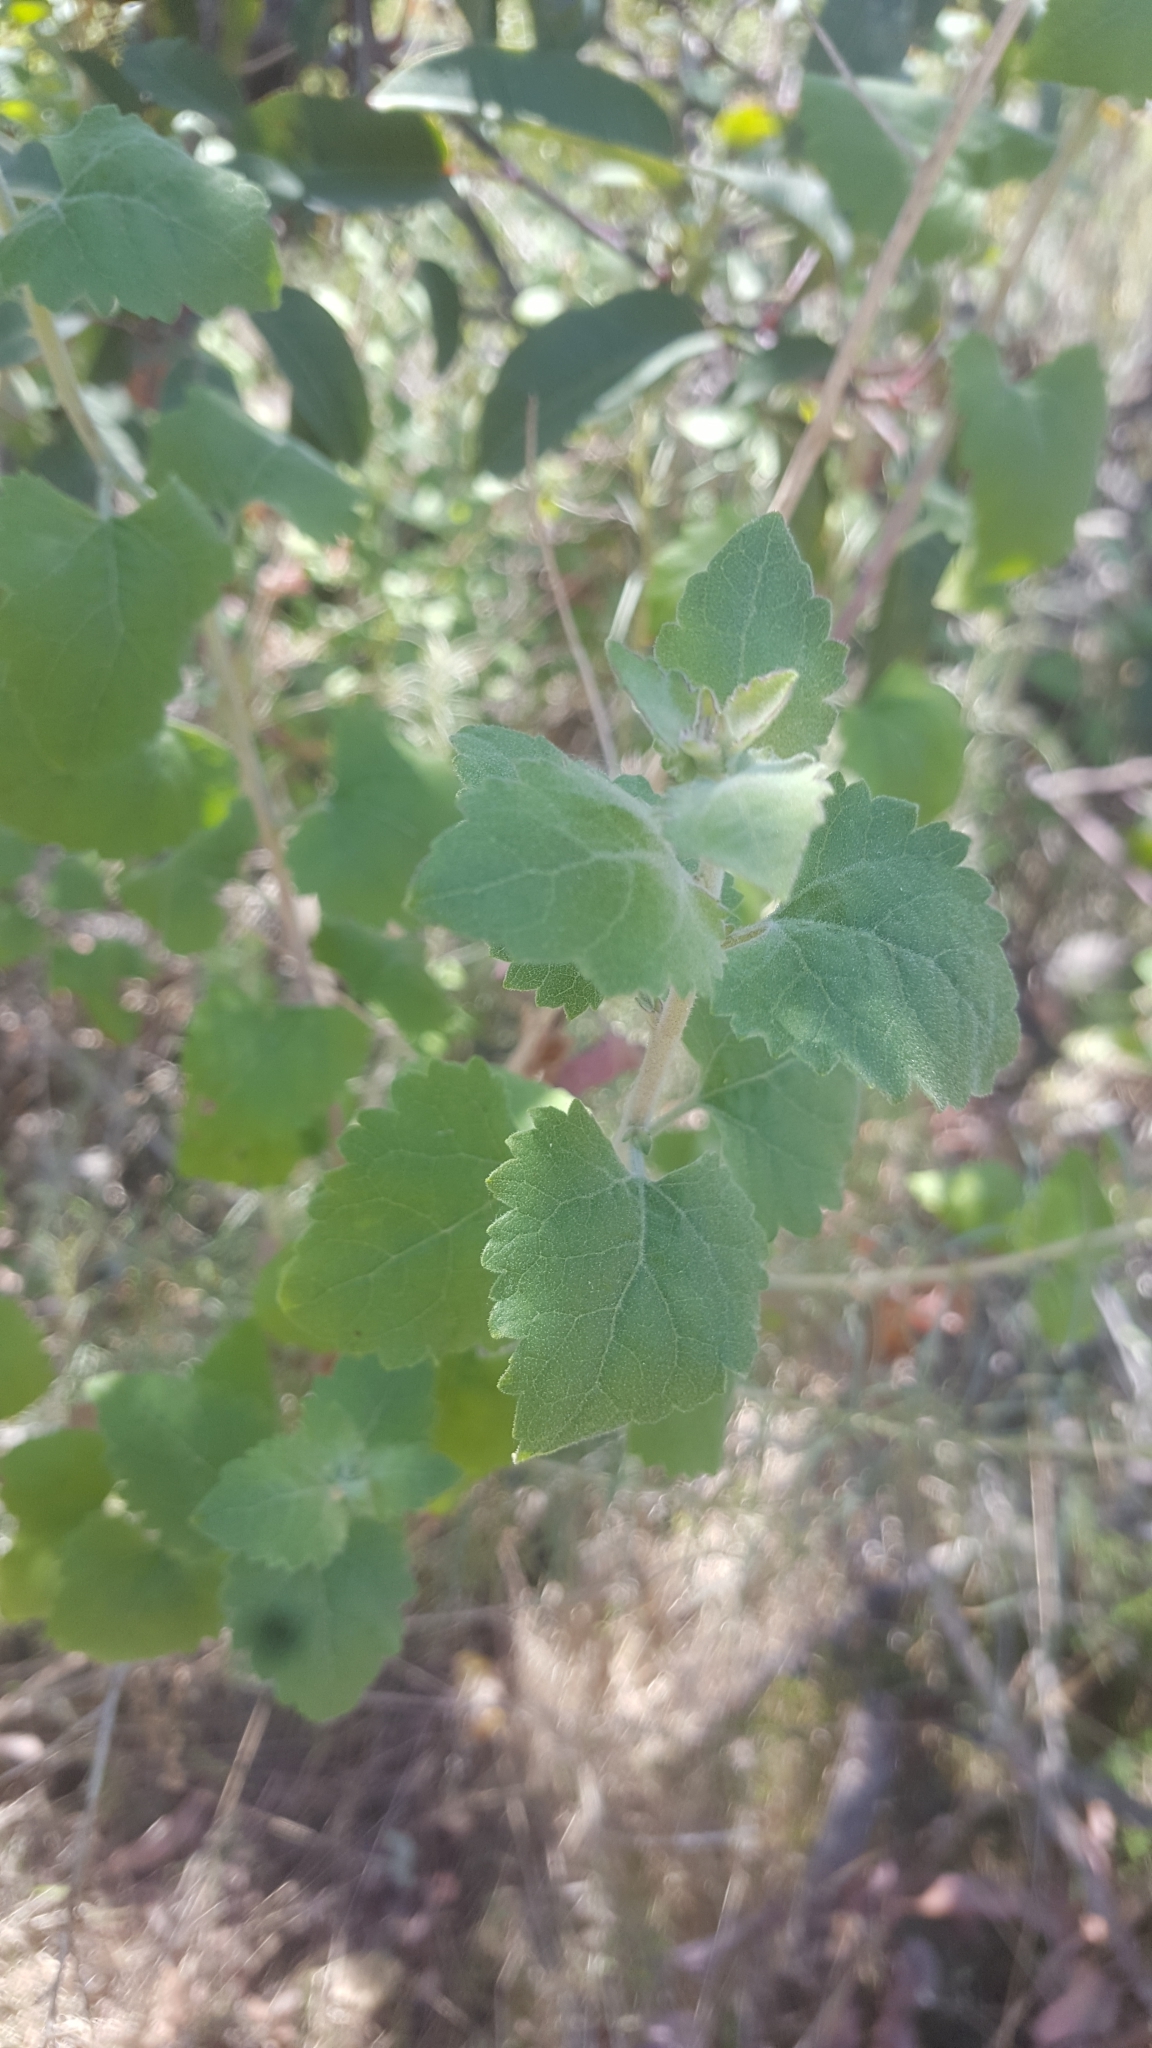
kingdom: Plantae
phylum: Tracheophyta
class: Magnoliopsida
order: Asterales
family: Asteraceae
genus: Brickellia
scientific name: Brickellia californica
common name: California brickellbush
